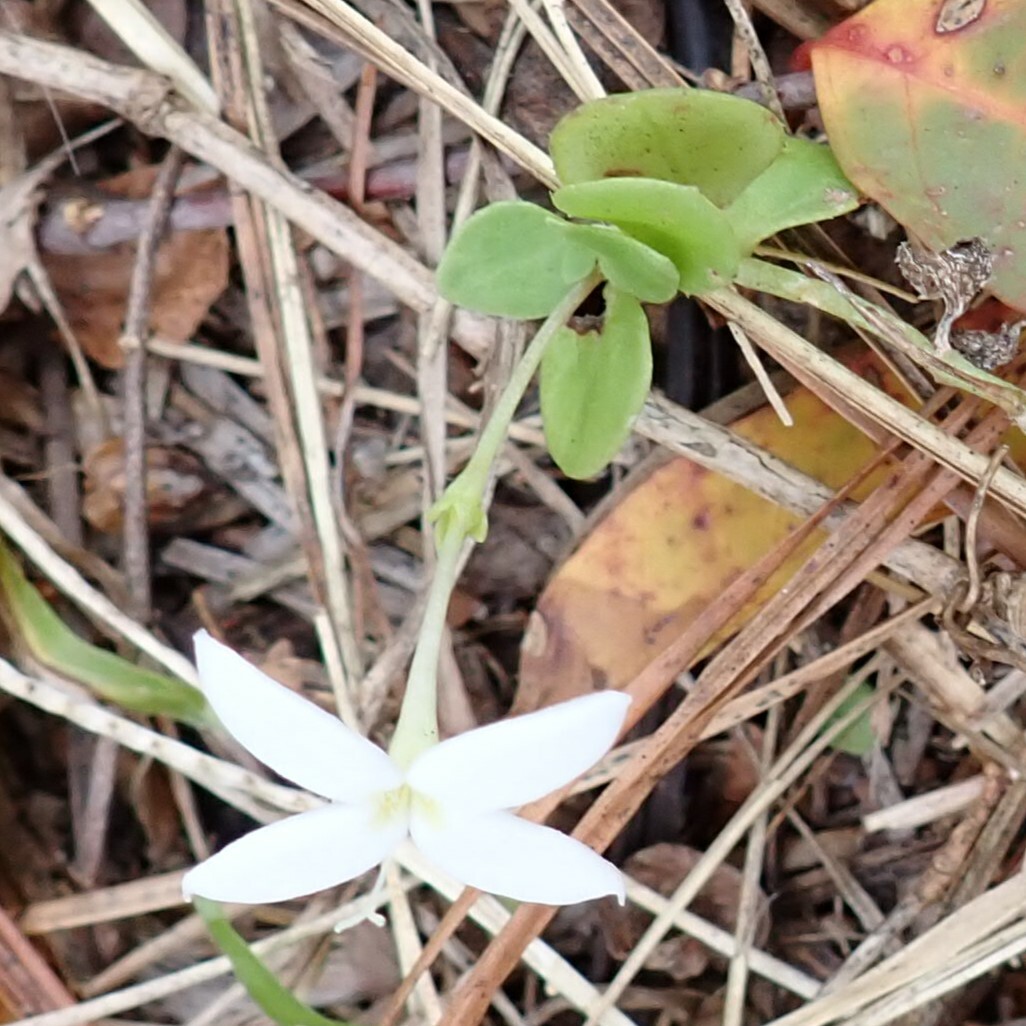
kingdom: Plantae
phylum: Tracheophyta
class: Magnoliopsida
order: Gentianales
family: Rubiaceae
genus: Houstonia
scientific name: Houstonia procumbens
